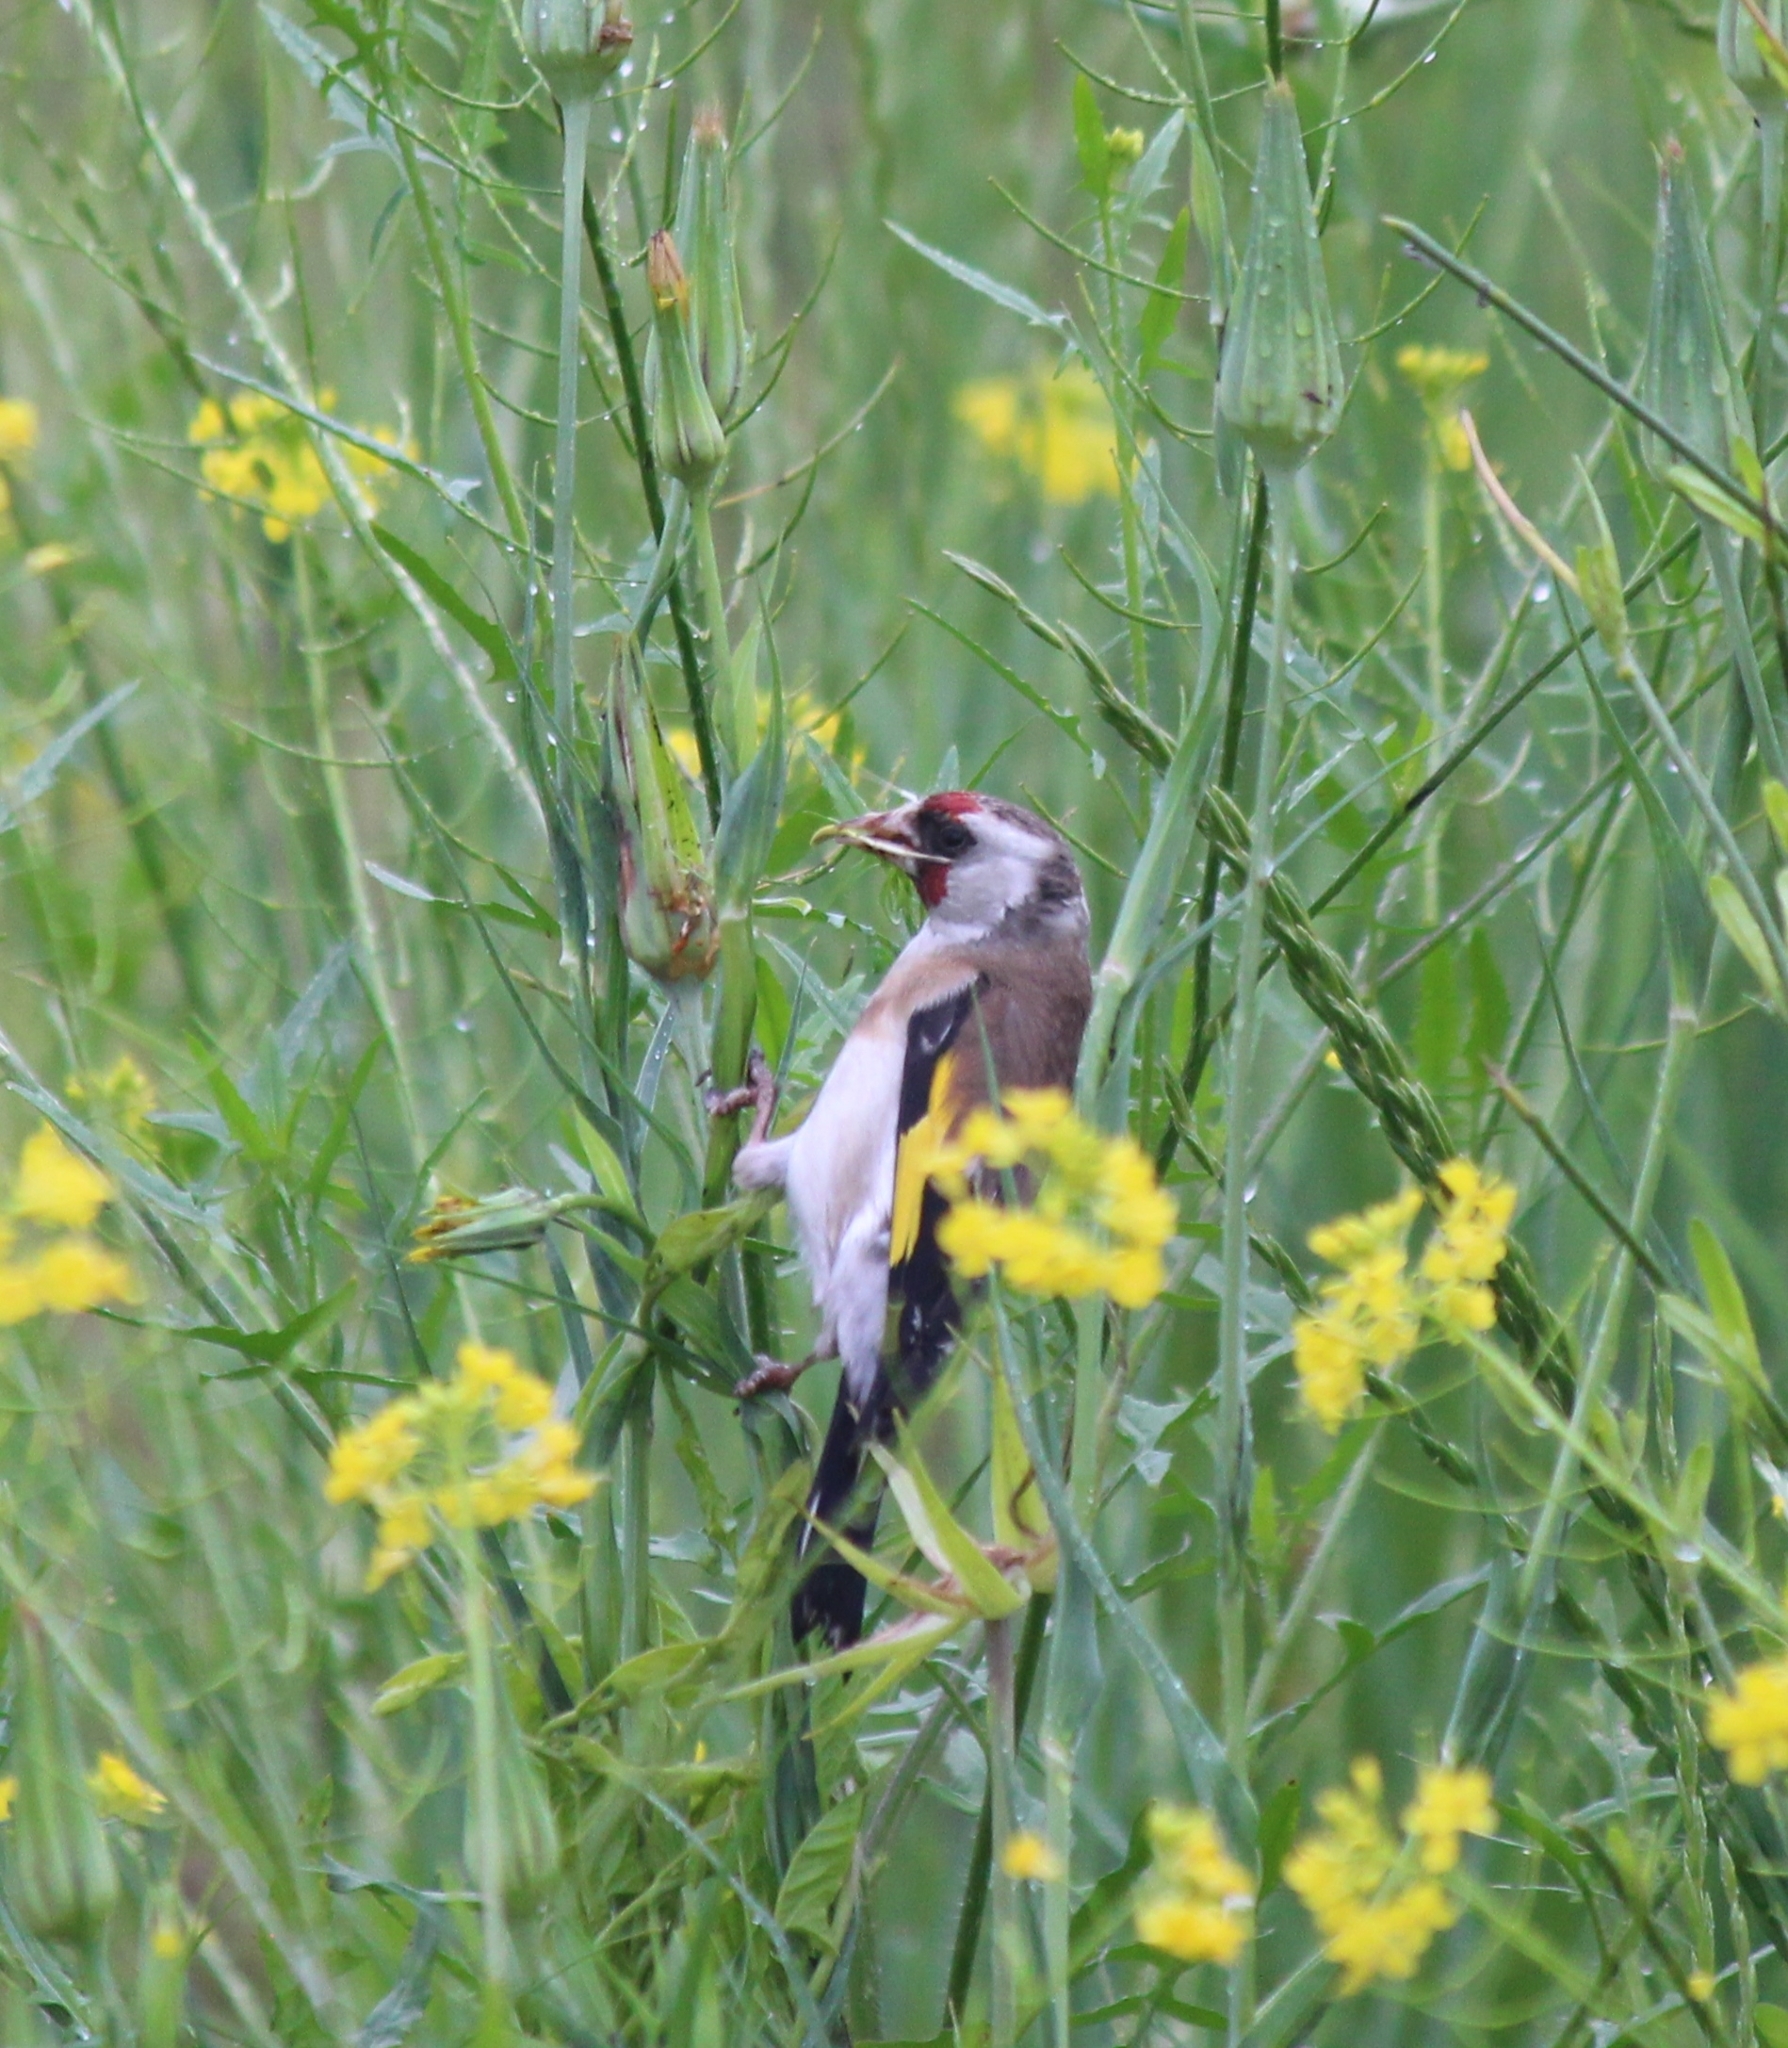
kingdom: Animalia
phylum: Chordata
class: Aves
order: Passeriformes
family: Fringillidae
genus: Carduelis
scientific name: Carduelis carduelis
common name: European goldfinch
